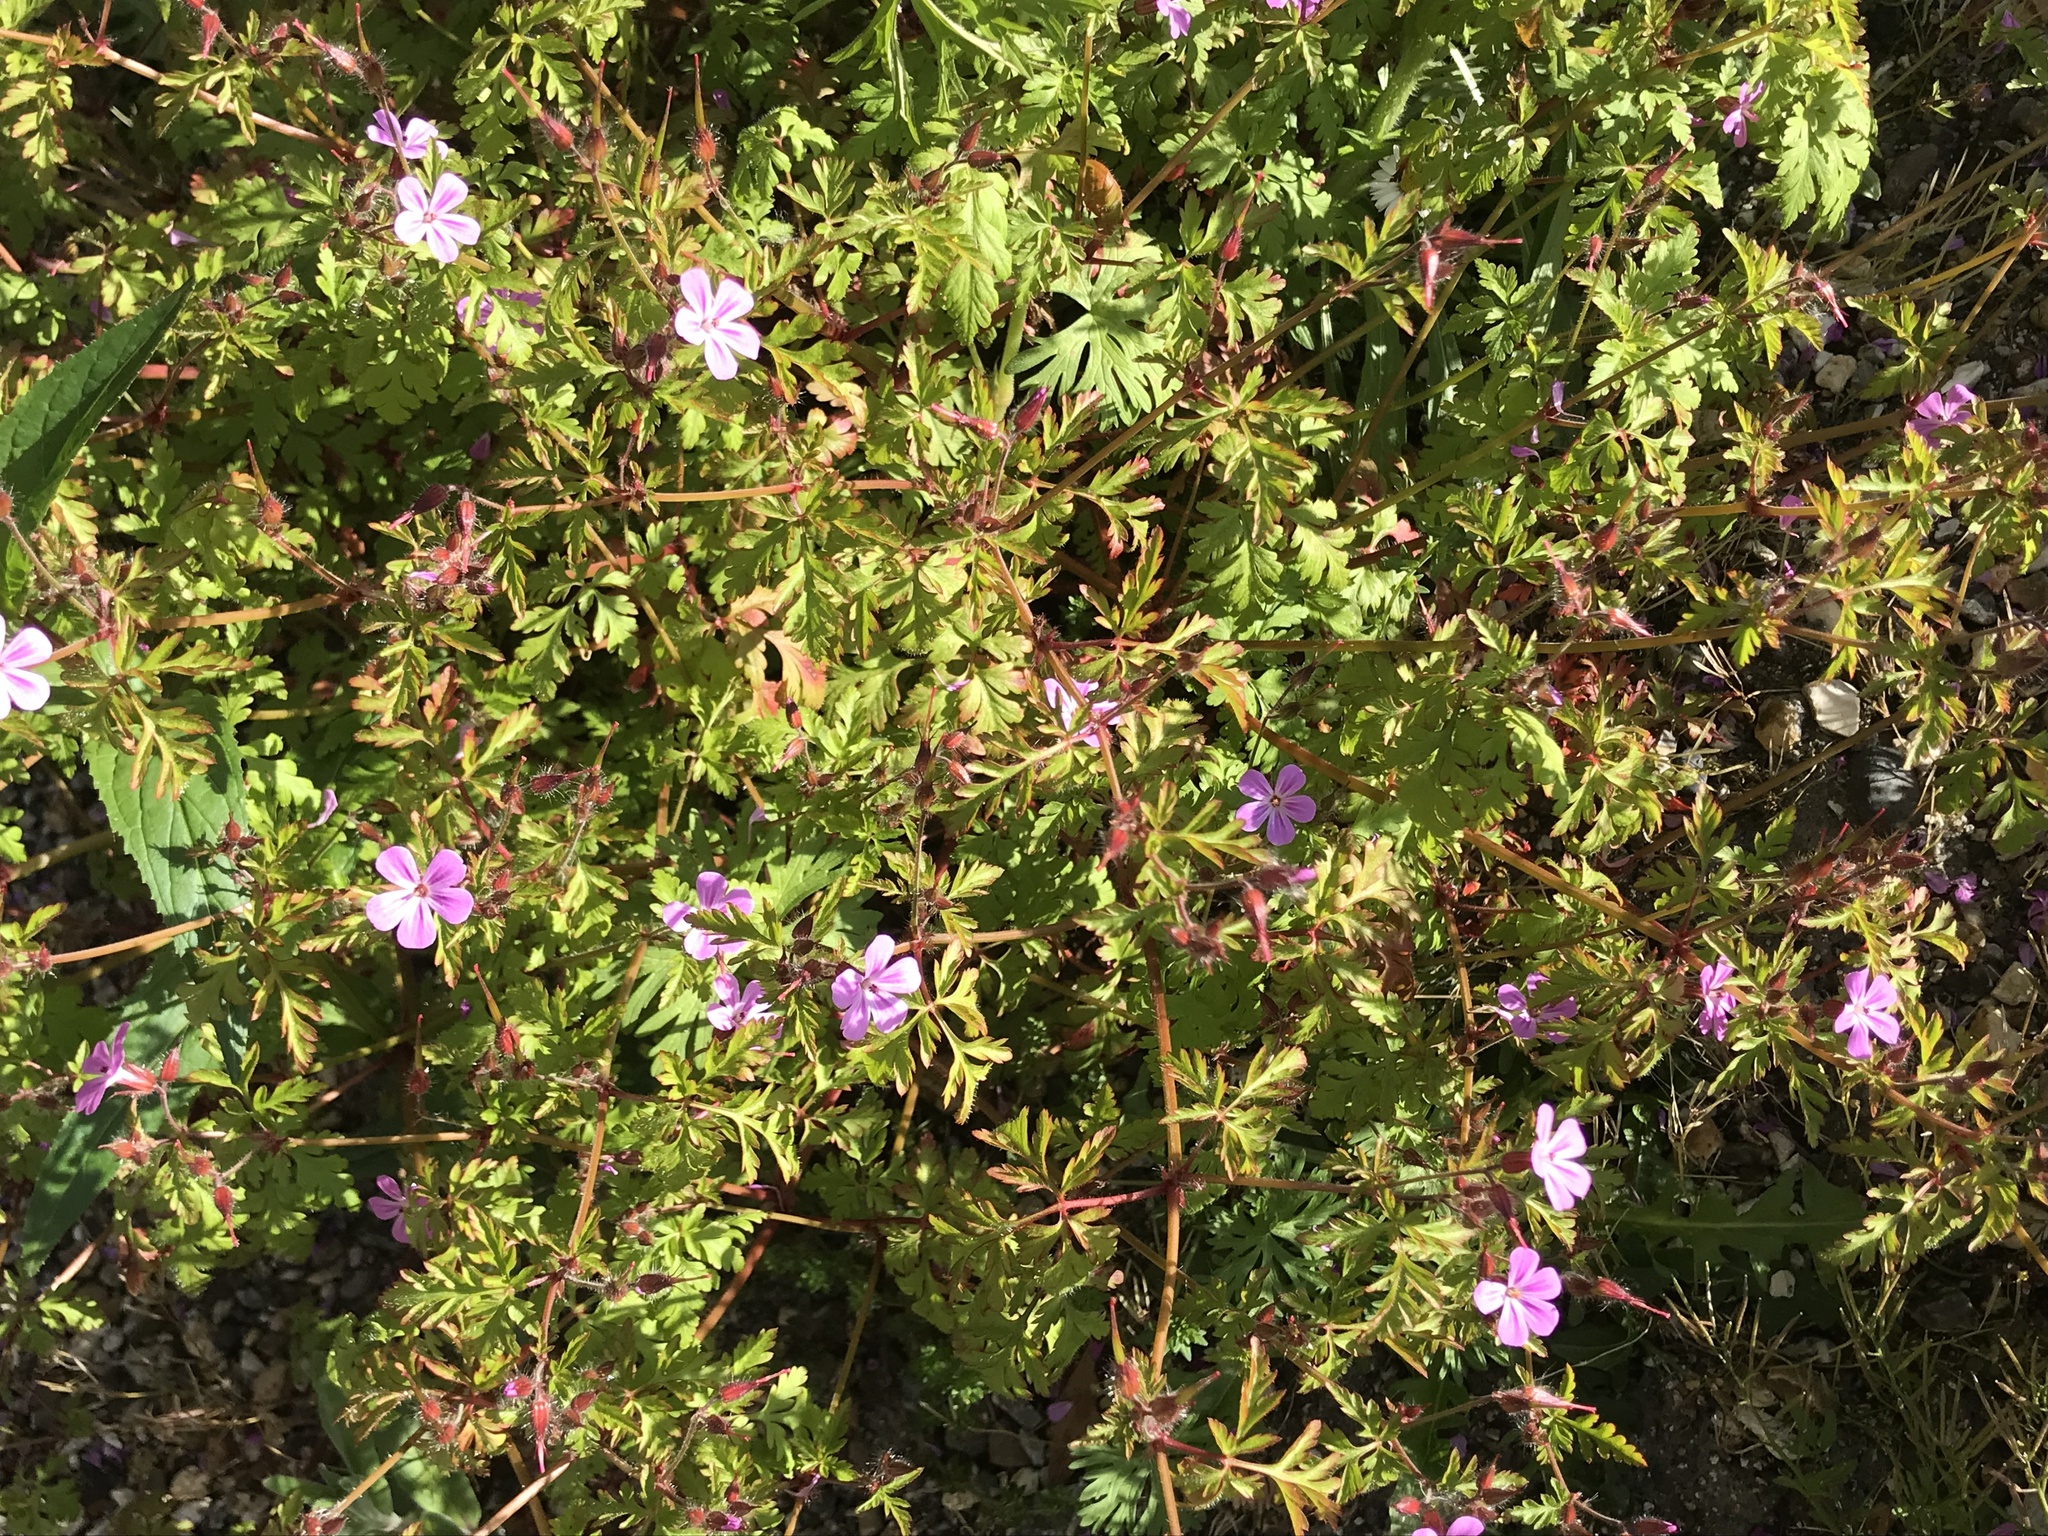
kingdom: Plantae
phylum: Tracheophyta
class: Magnoliopsida
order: Geraniales
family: Geraniaceae
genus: Geranium
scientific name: Geranium robertianum
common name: Herb-robert
